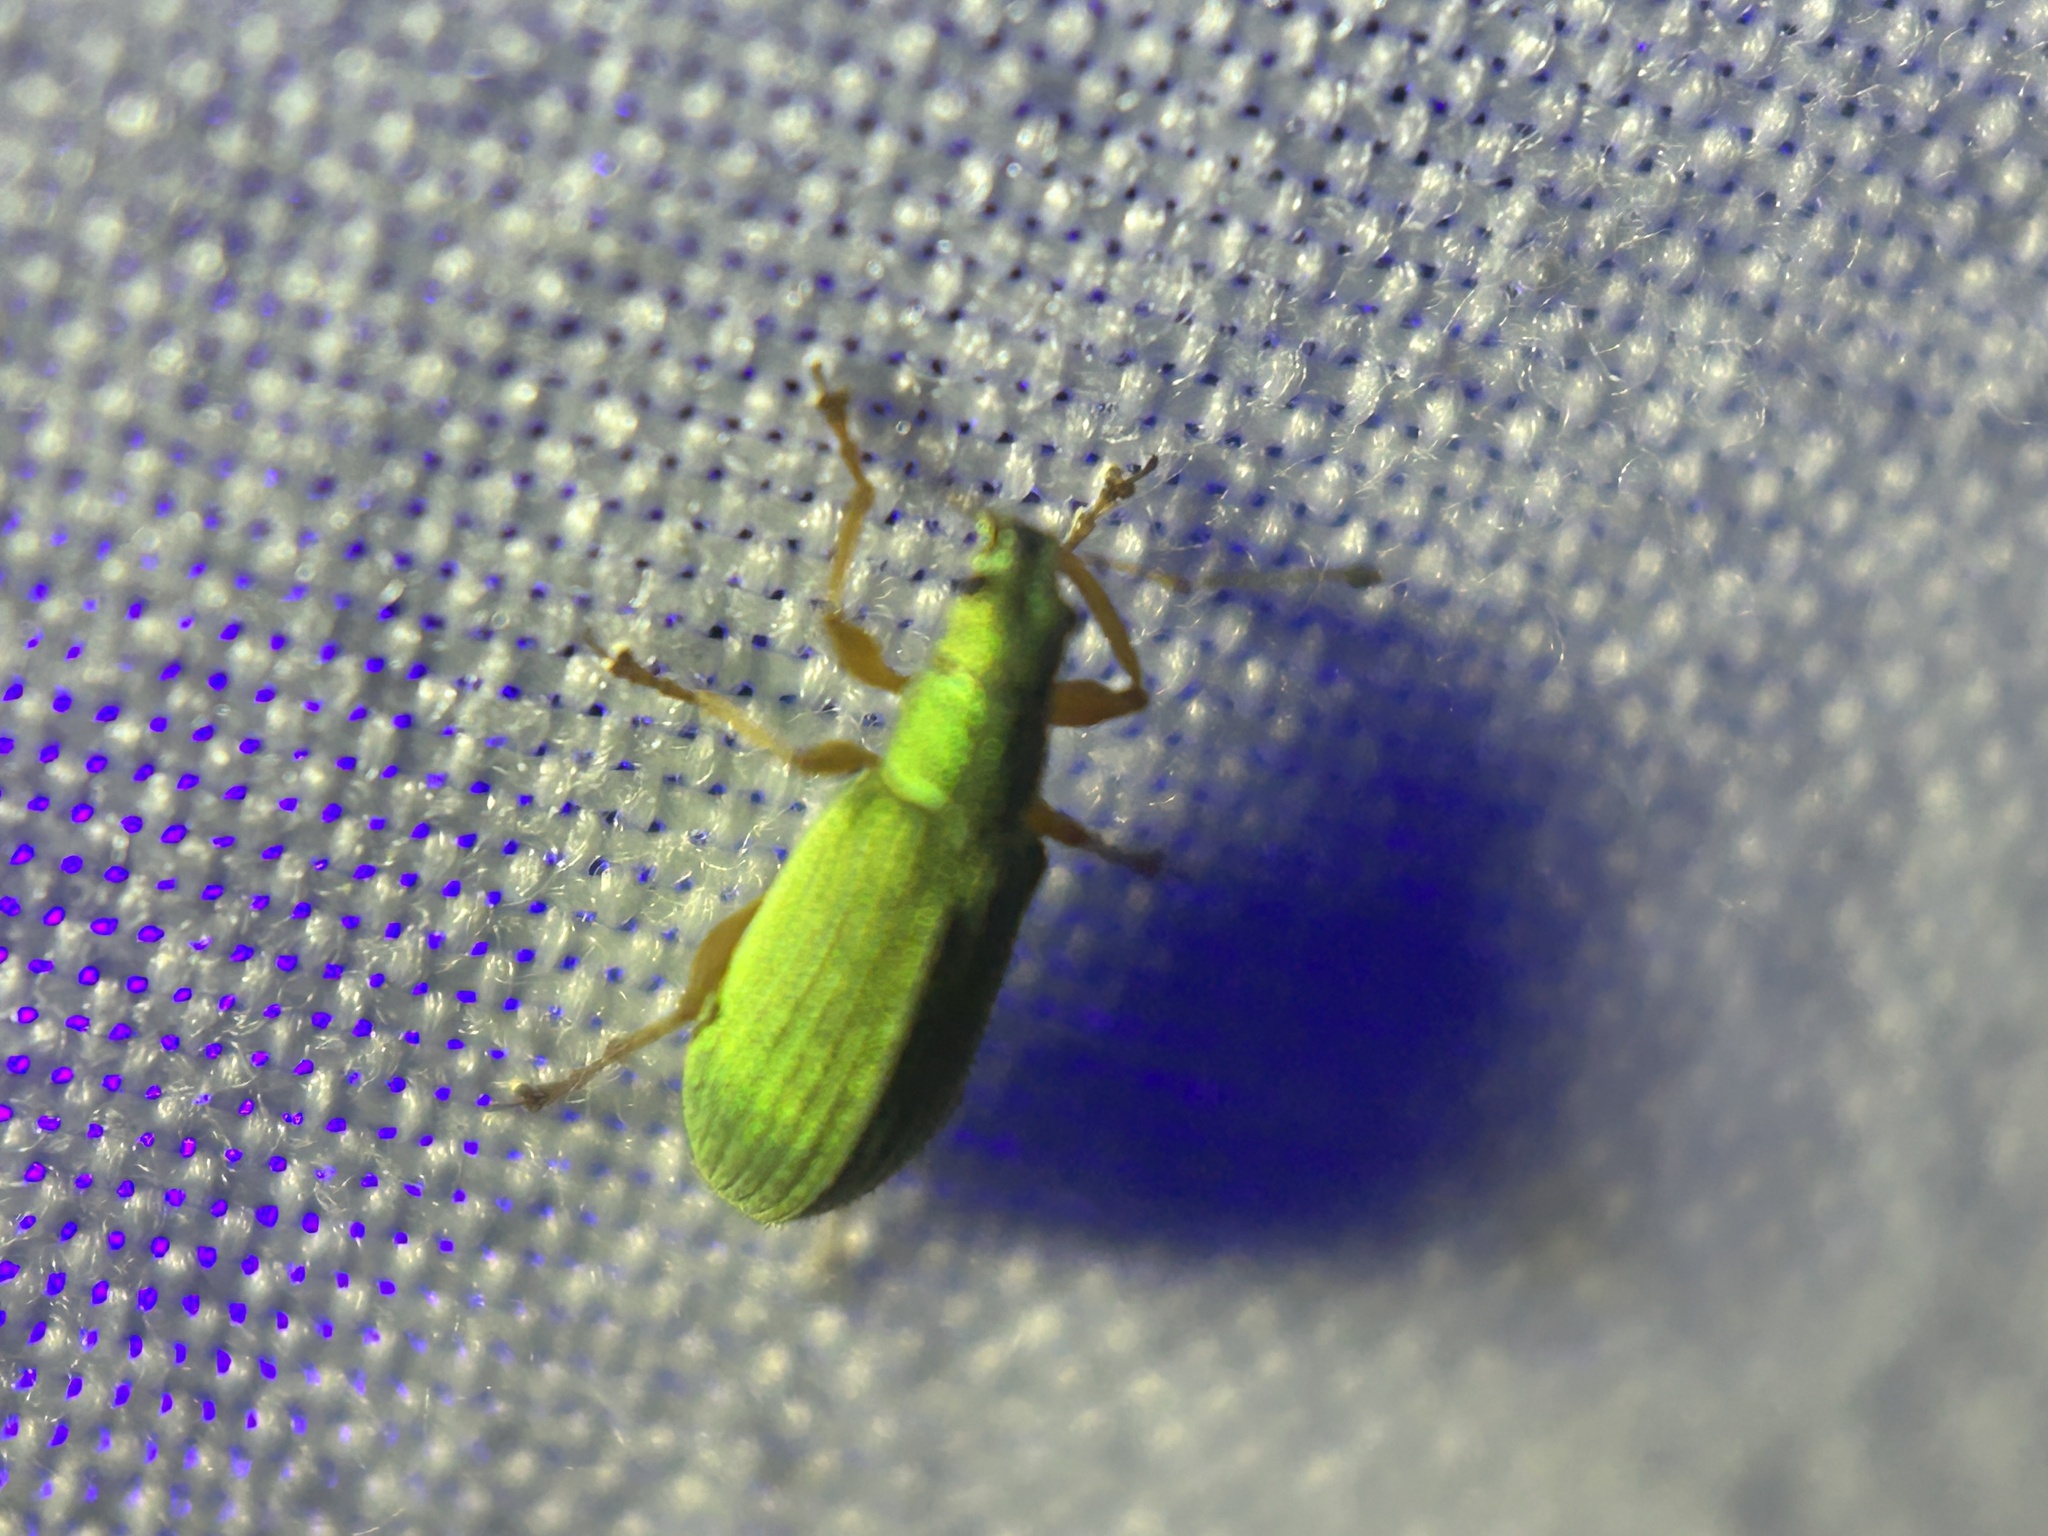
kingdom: Animalia
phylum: Arthropoda
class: Insecta
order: Coleoptera
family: Curculionidae
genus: Polydrusus
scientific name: Polydrusus impressifrons
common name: Weevil
